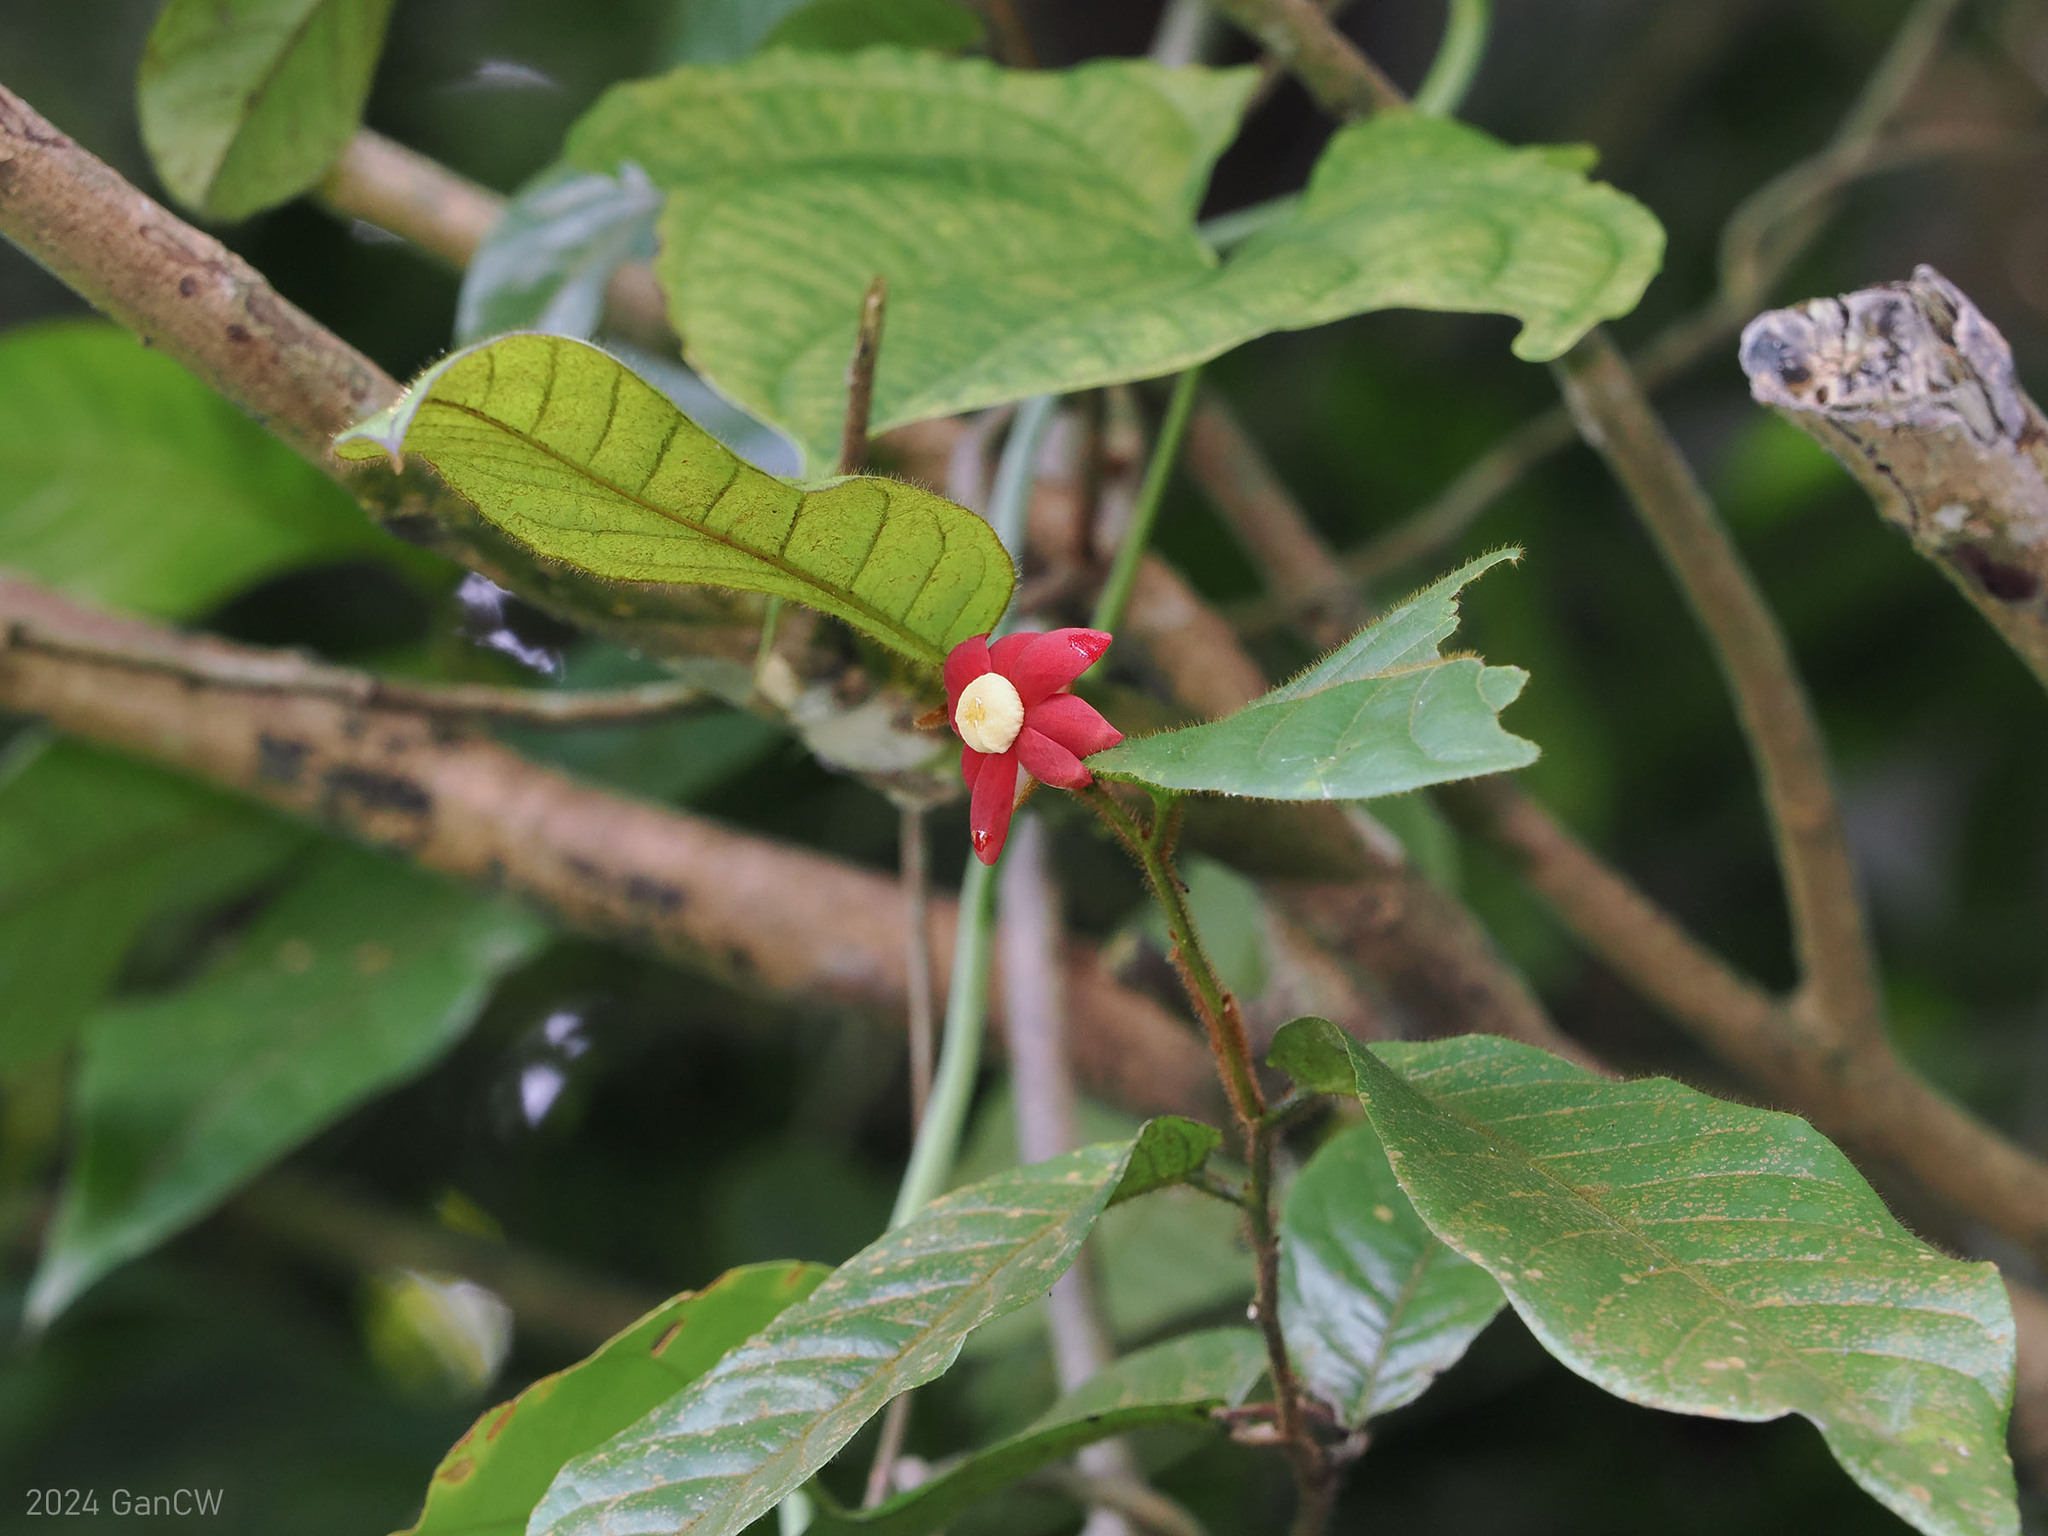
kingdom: Plantae
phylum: Tracheophyta
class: Magnoliopsida
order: Magnoliales
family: Annonaceae
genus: Uvaria
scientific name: Uvaria hirsuta
